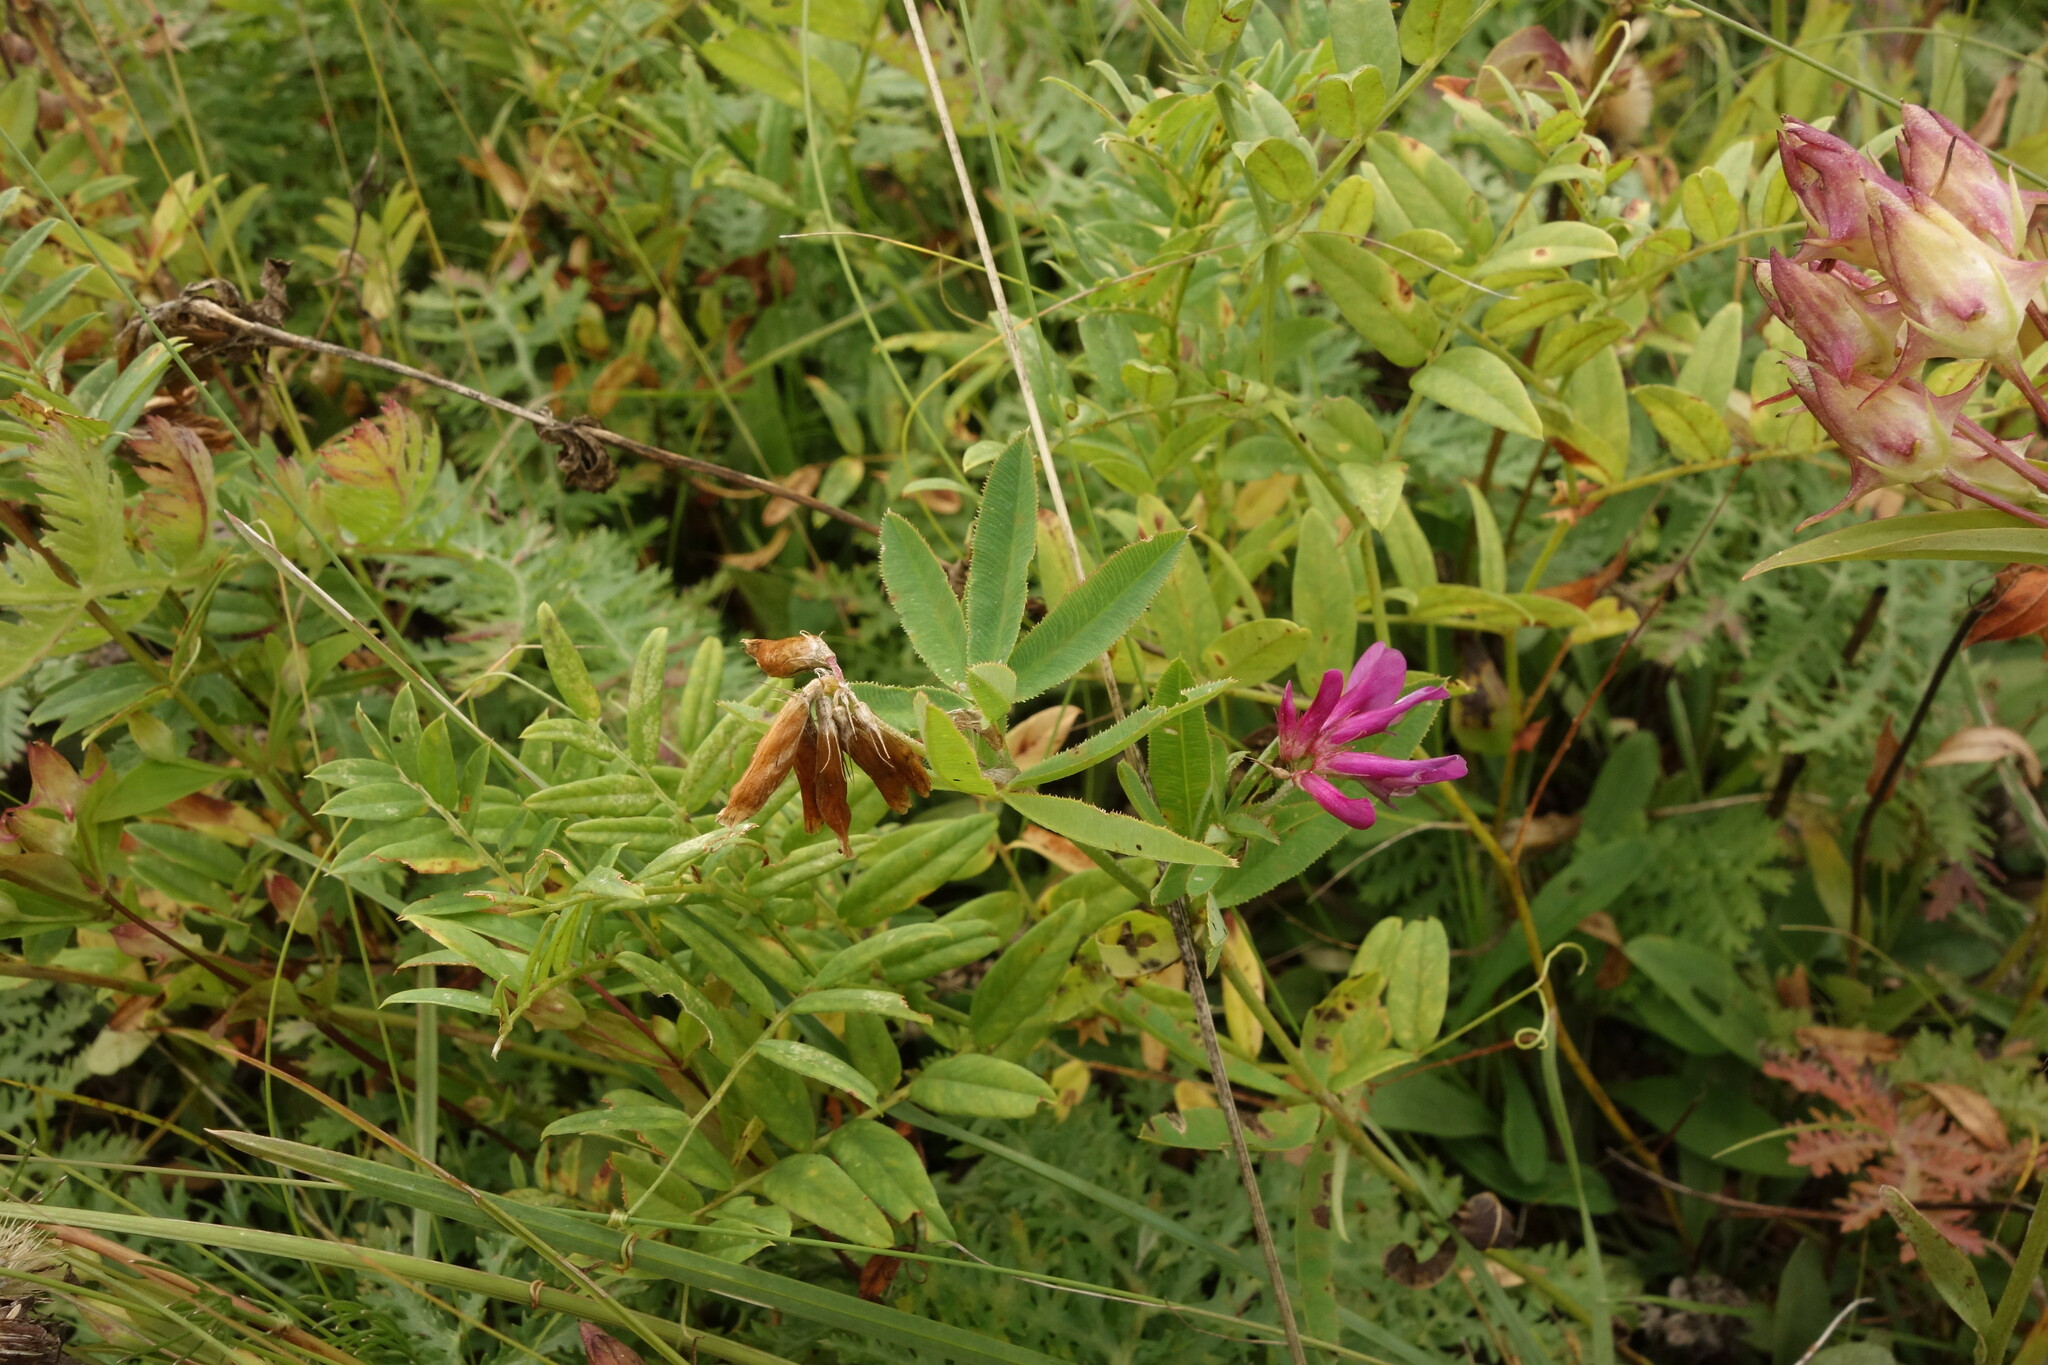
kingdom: Plantae
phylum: Tracheophyta
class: Magnoliopsida
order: Fabales
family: Fabaceae
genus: Trifolium
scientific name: Trifolium lupinaster
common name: Lupine clover
